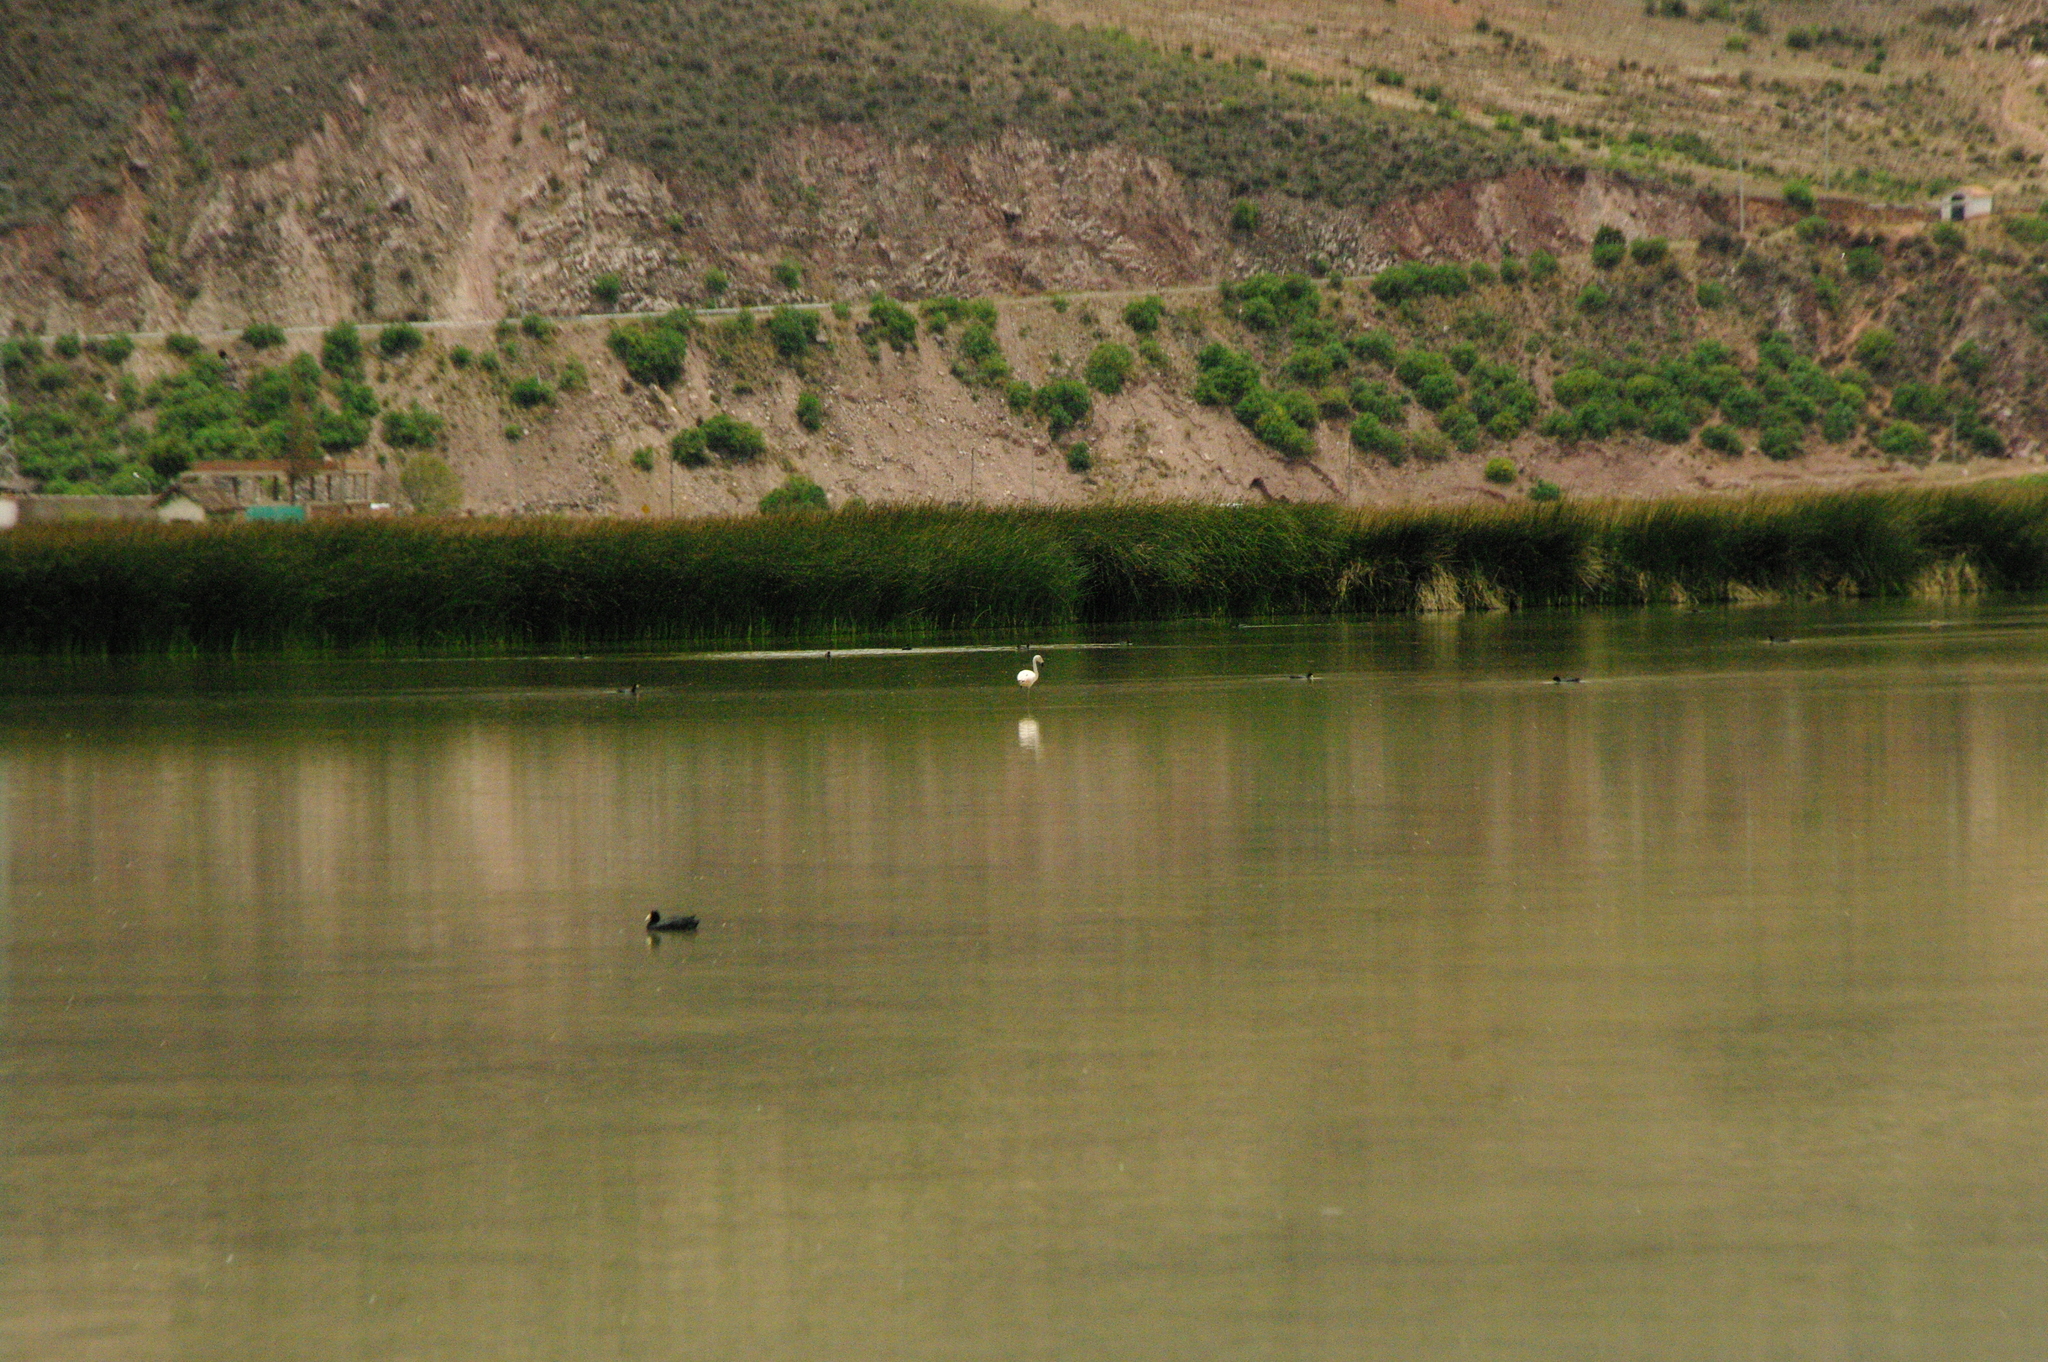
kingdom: Animalia
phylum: Chordata
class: Aves
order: Phoenicopteriformes
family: Phoenicopteridae
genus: Phoenicopterus
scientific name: Phoenicopterus chilensis
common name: Chilean flamingo
